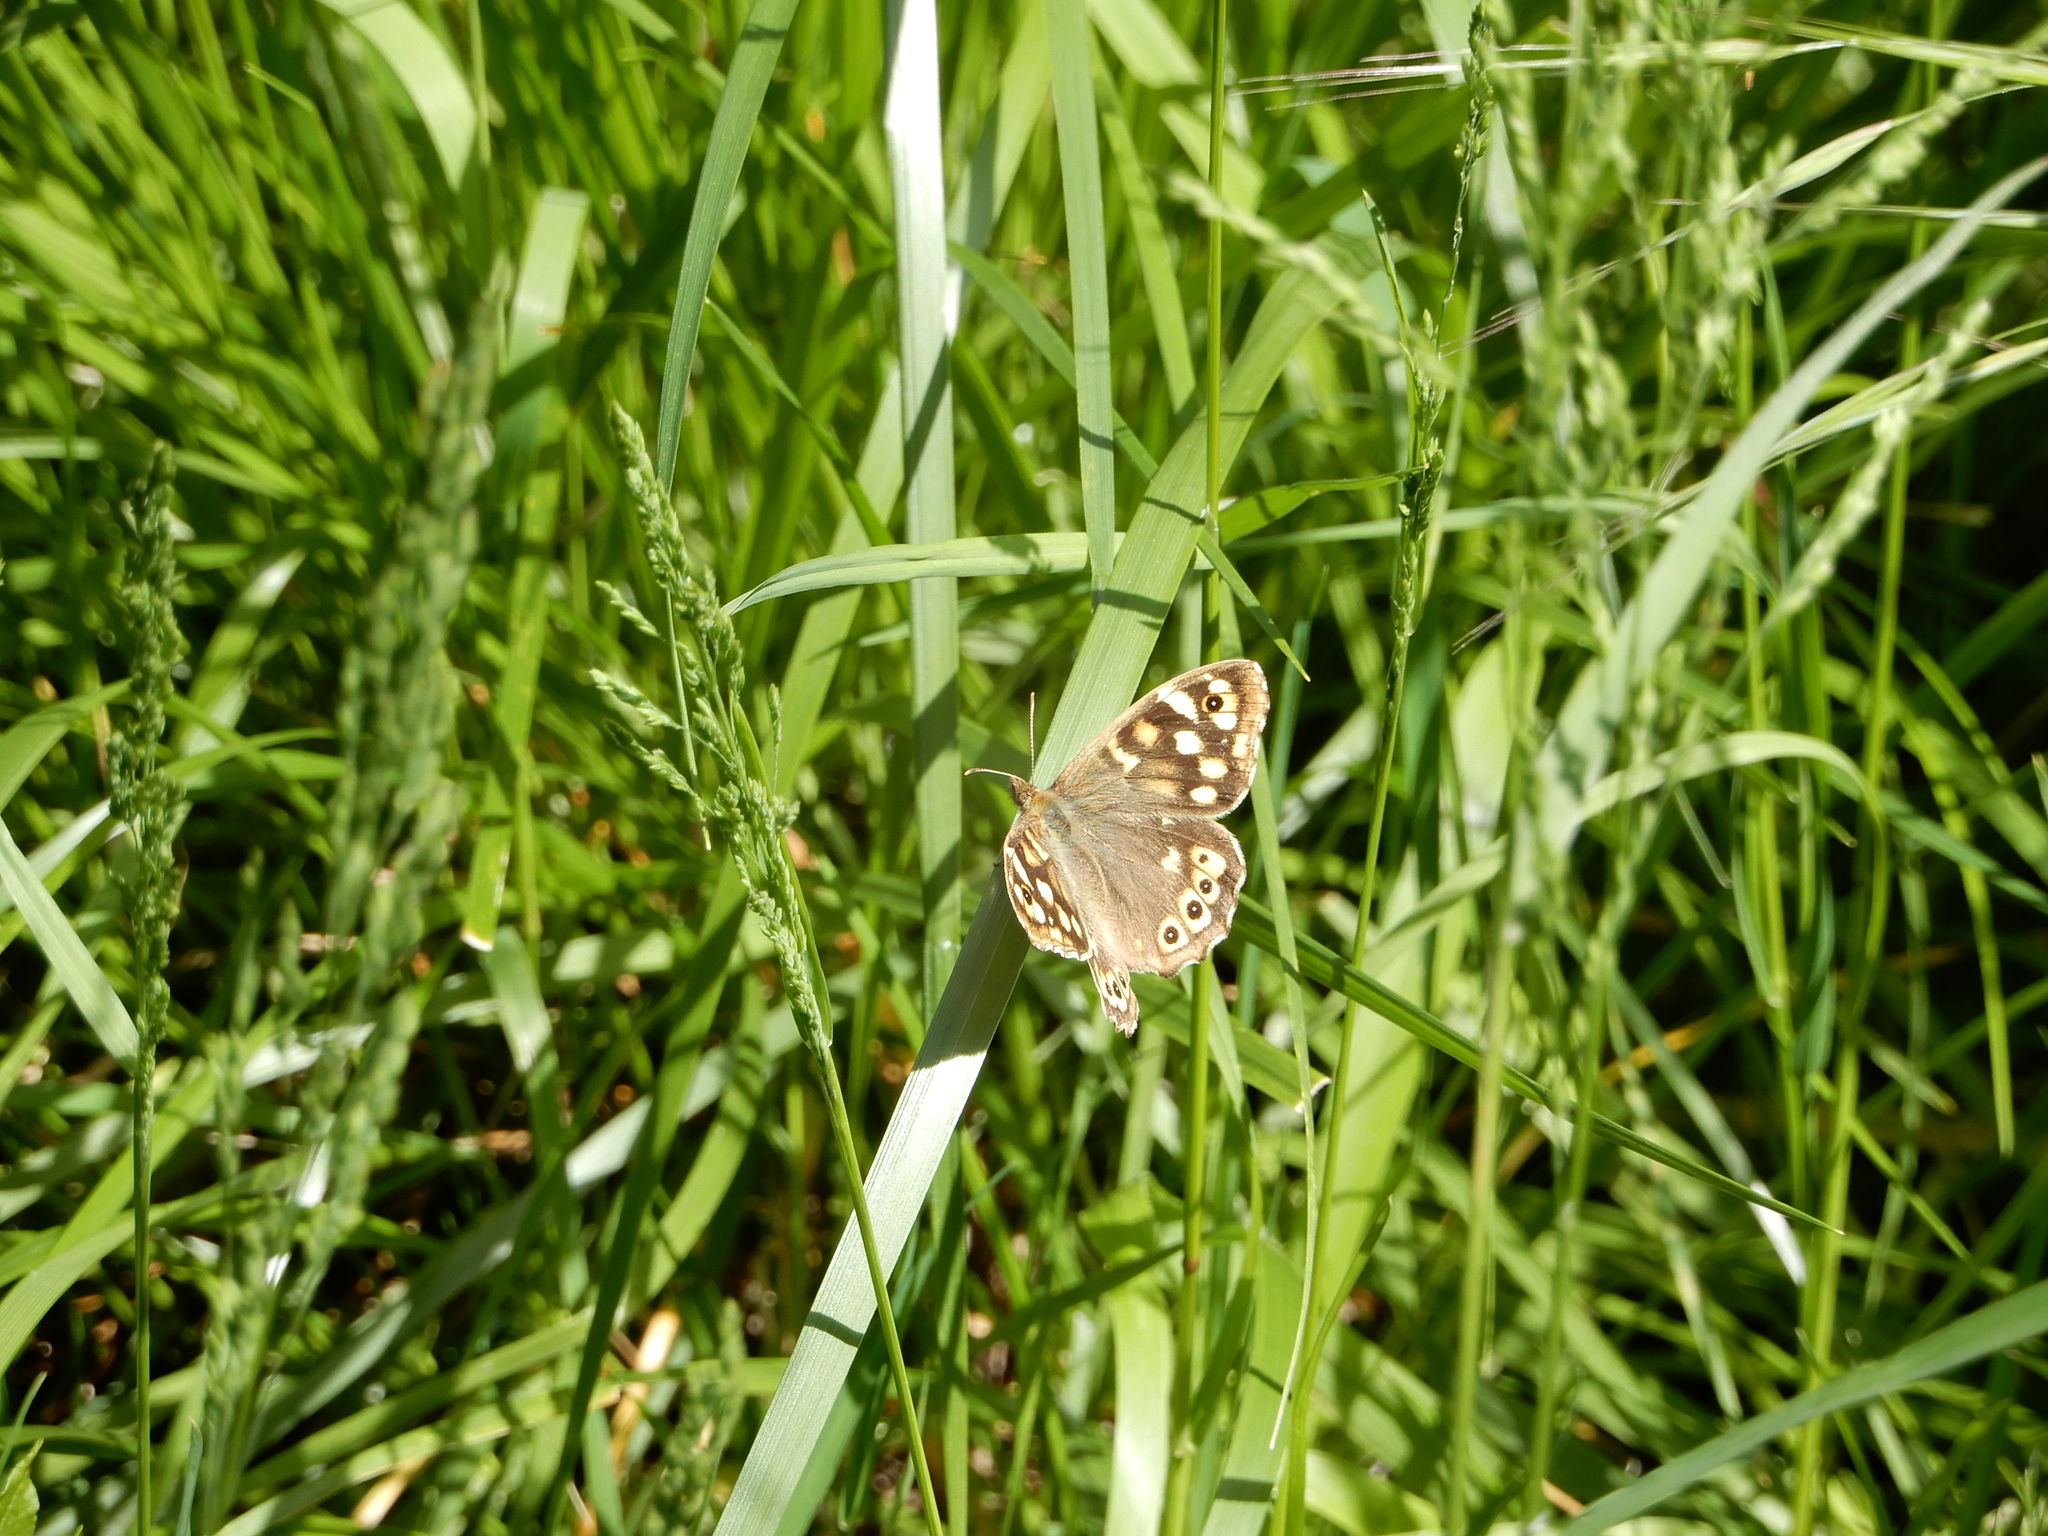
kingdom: Animalia
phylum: Arthropoda
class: Insecta
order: Lepidoptera
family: Nymphalidae
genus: Pararge
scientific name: Pararge aegeria
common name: Speckled wood
